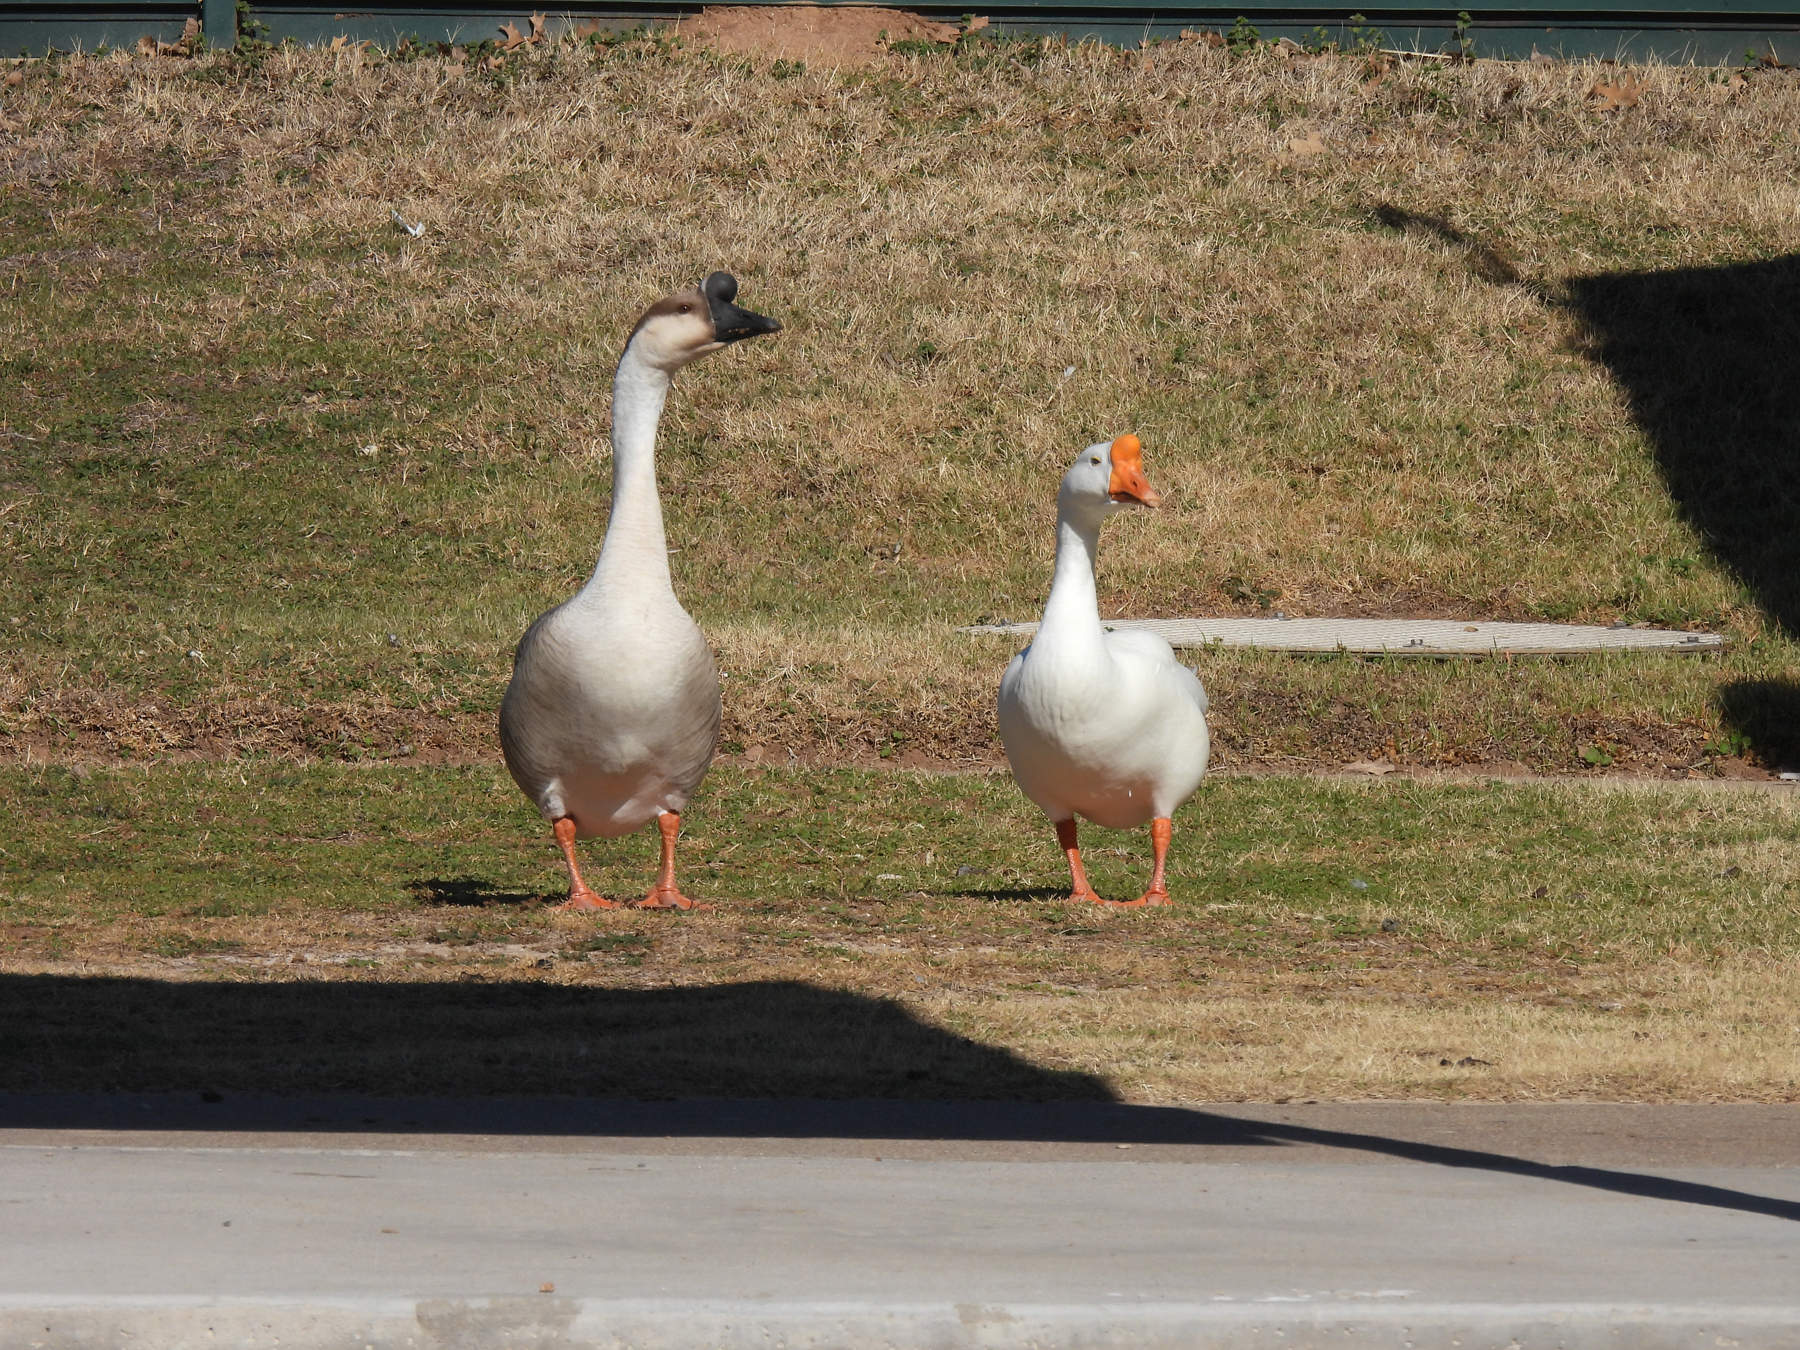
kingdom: Animalia
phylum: Chordata
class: Aves
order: Anseriformes
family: Anatidae
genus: Anser
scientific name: Anser cygnoides
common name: Swan goose
